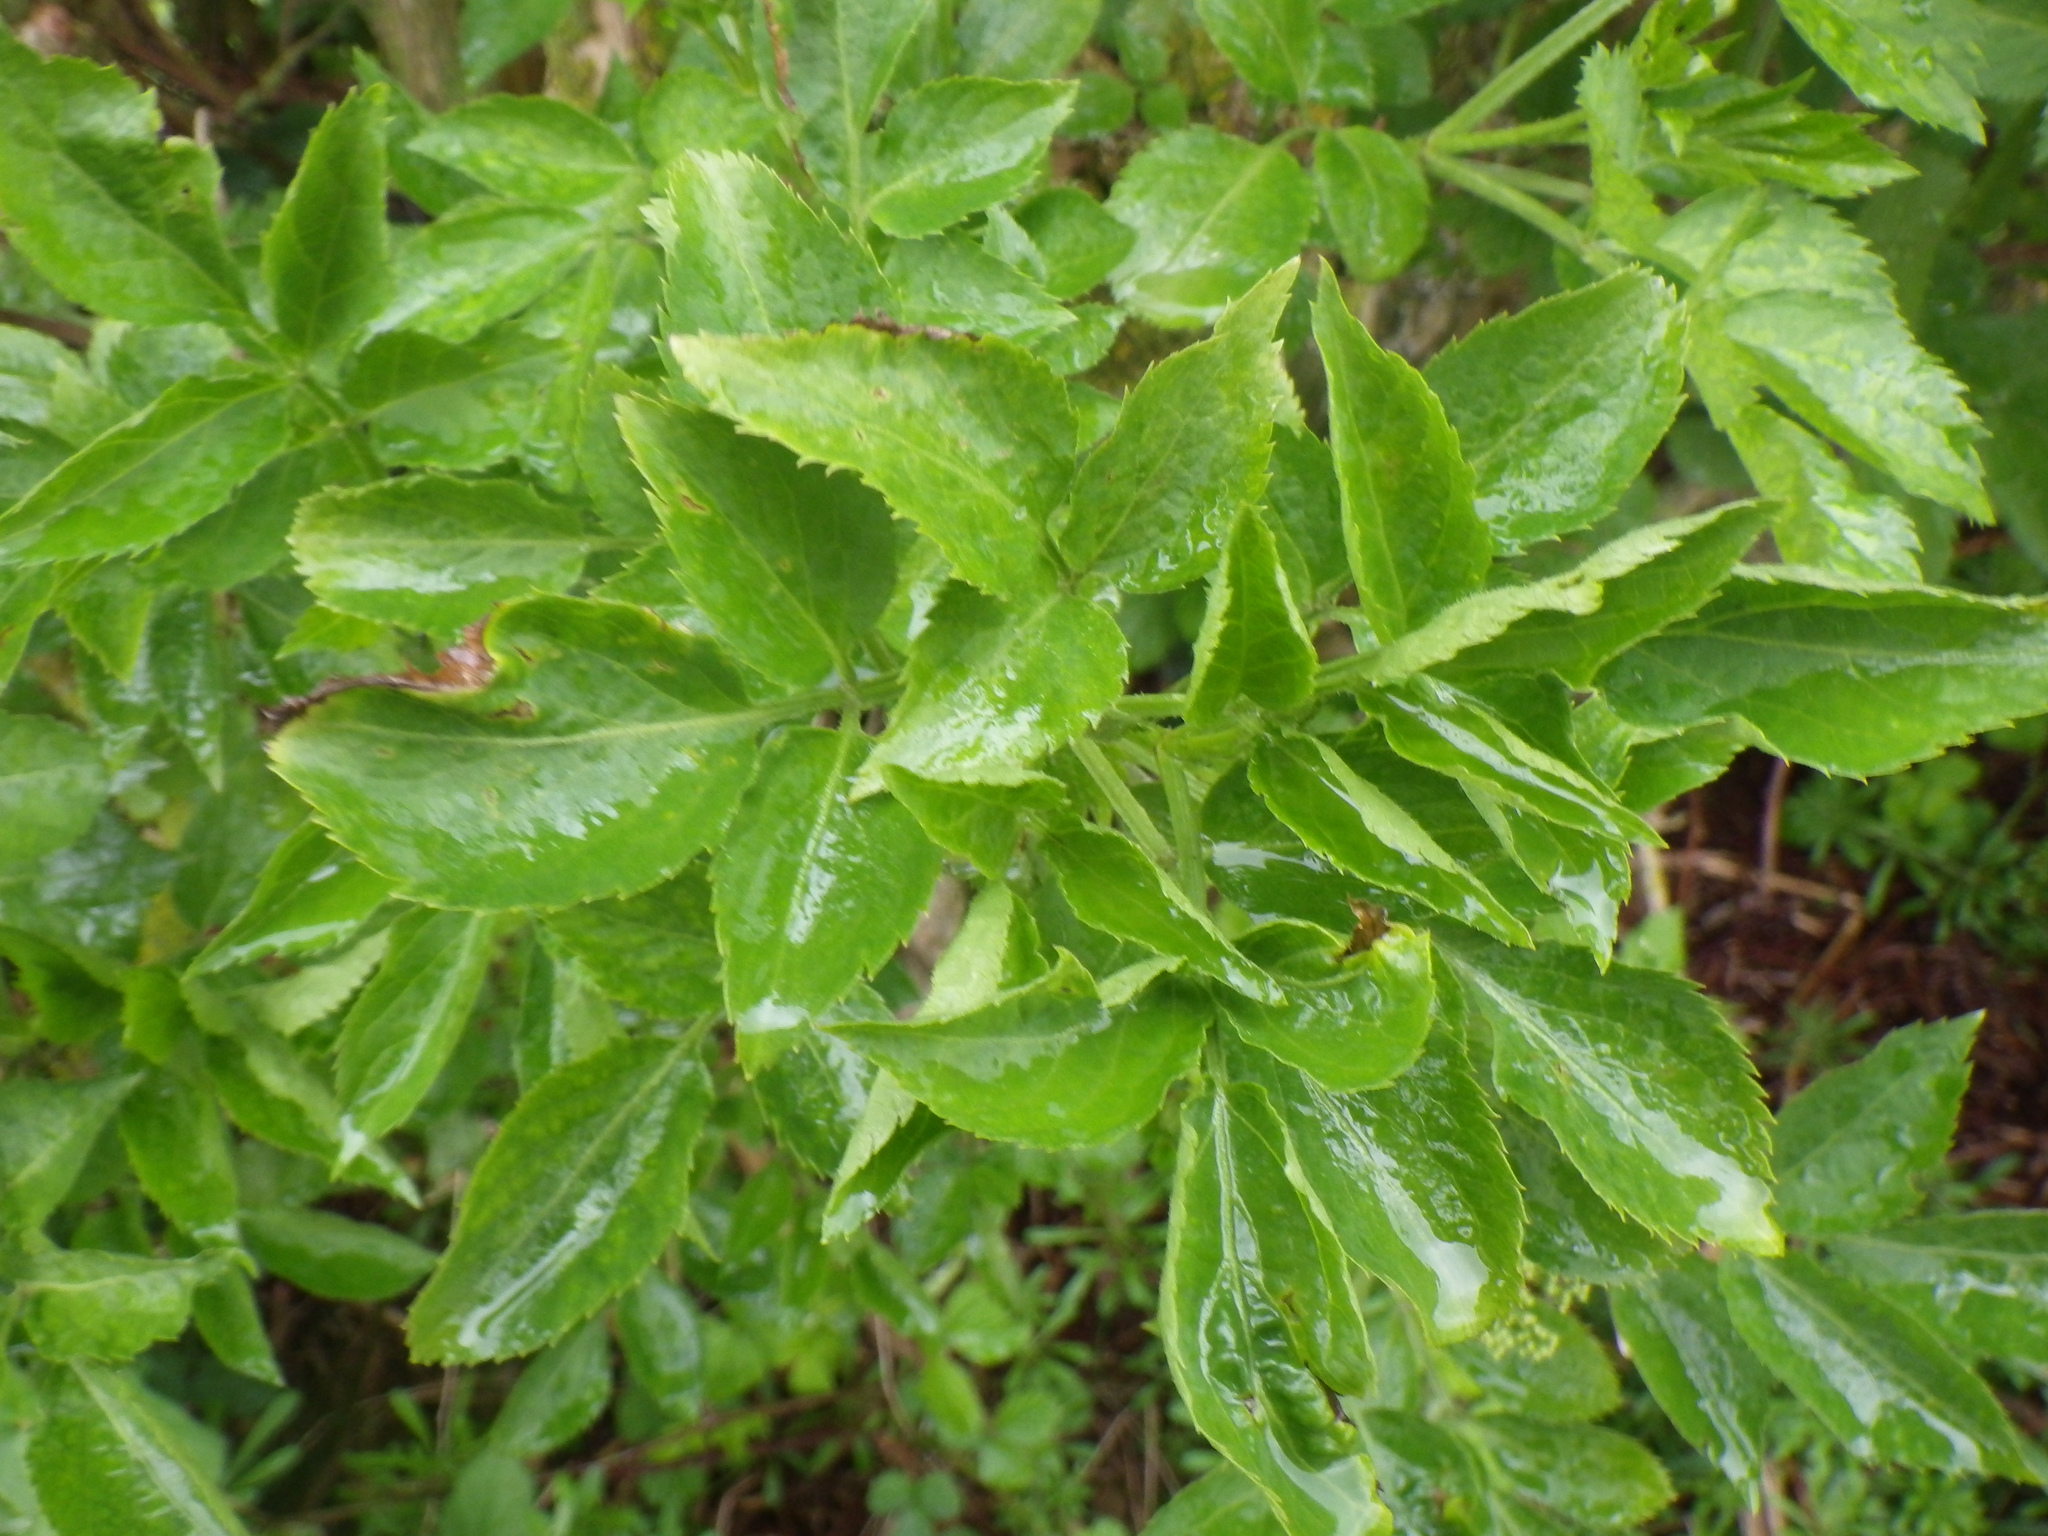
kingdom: Plantae
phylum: Tracheophyta
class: Magnoliopsida
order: Dipsacales
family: Viburnaceae
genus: Sambucus
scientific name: Sambucus nigra
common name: Elder
